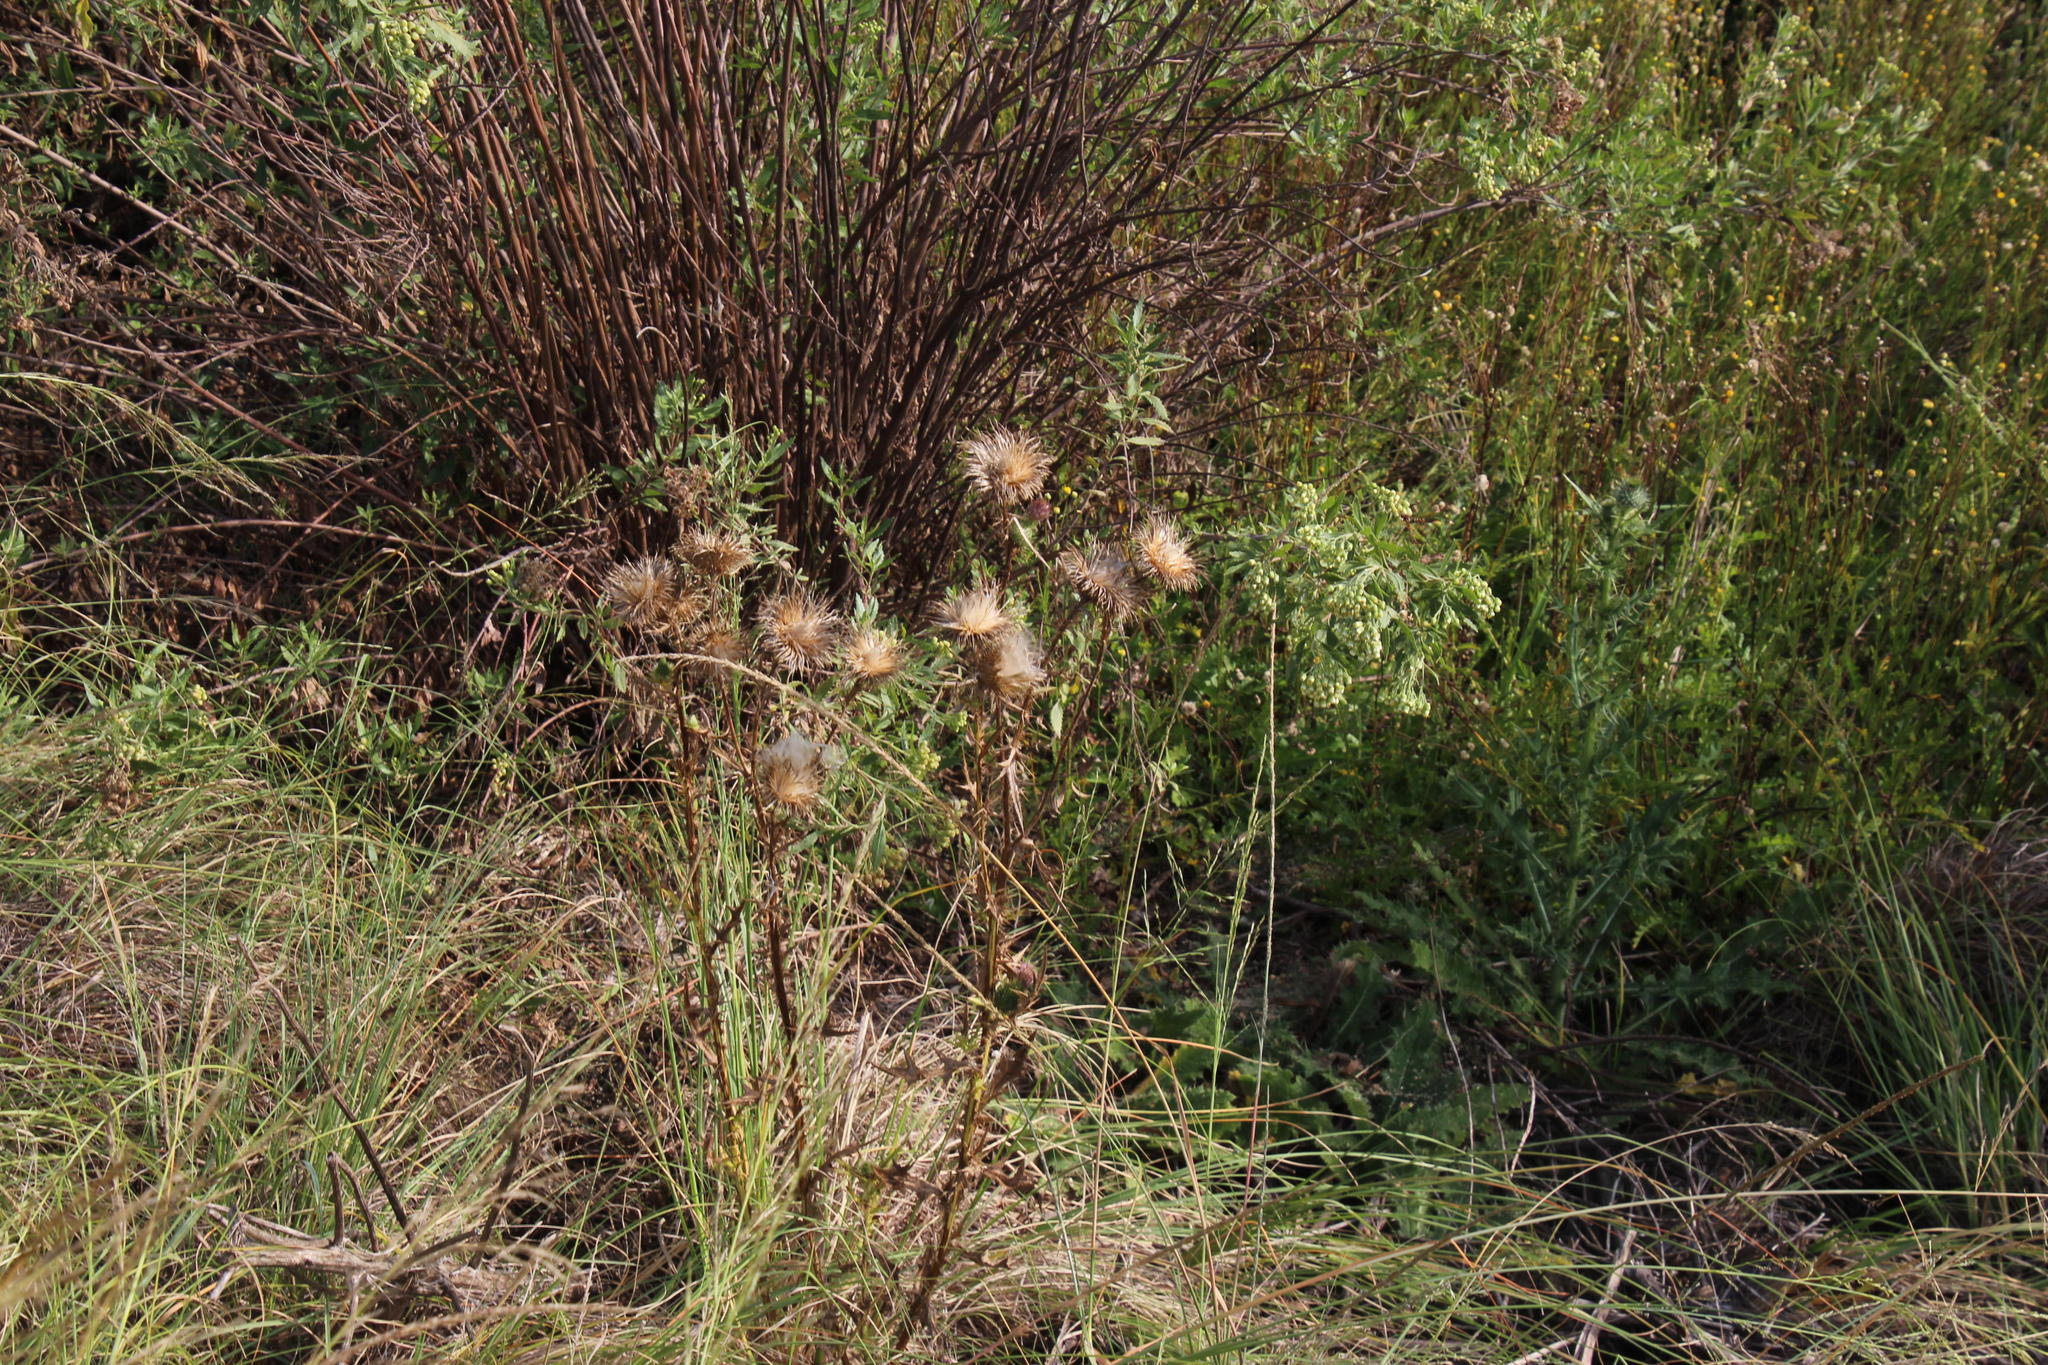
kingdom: Plantae
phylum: Tracheophyta
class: Magnoliopsida
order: Asterales
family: Asteraceae
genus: Cirsium
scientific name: Cirsium vulgare
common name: Bull thistle
